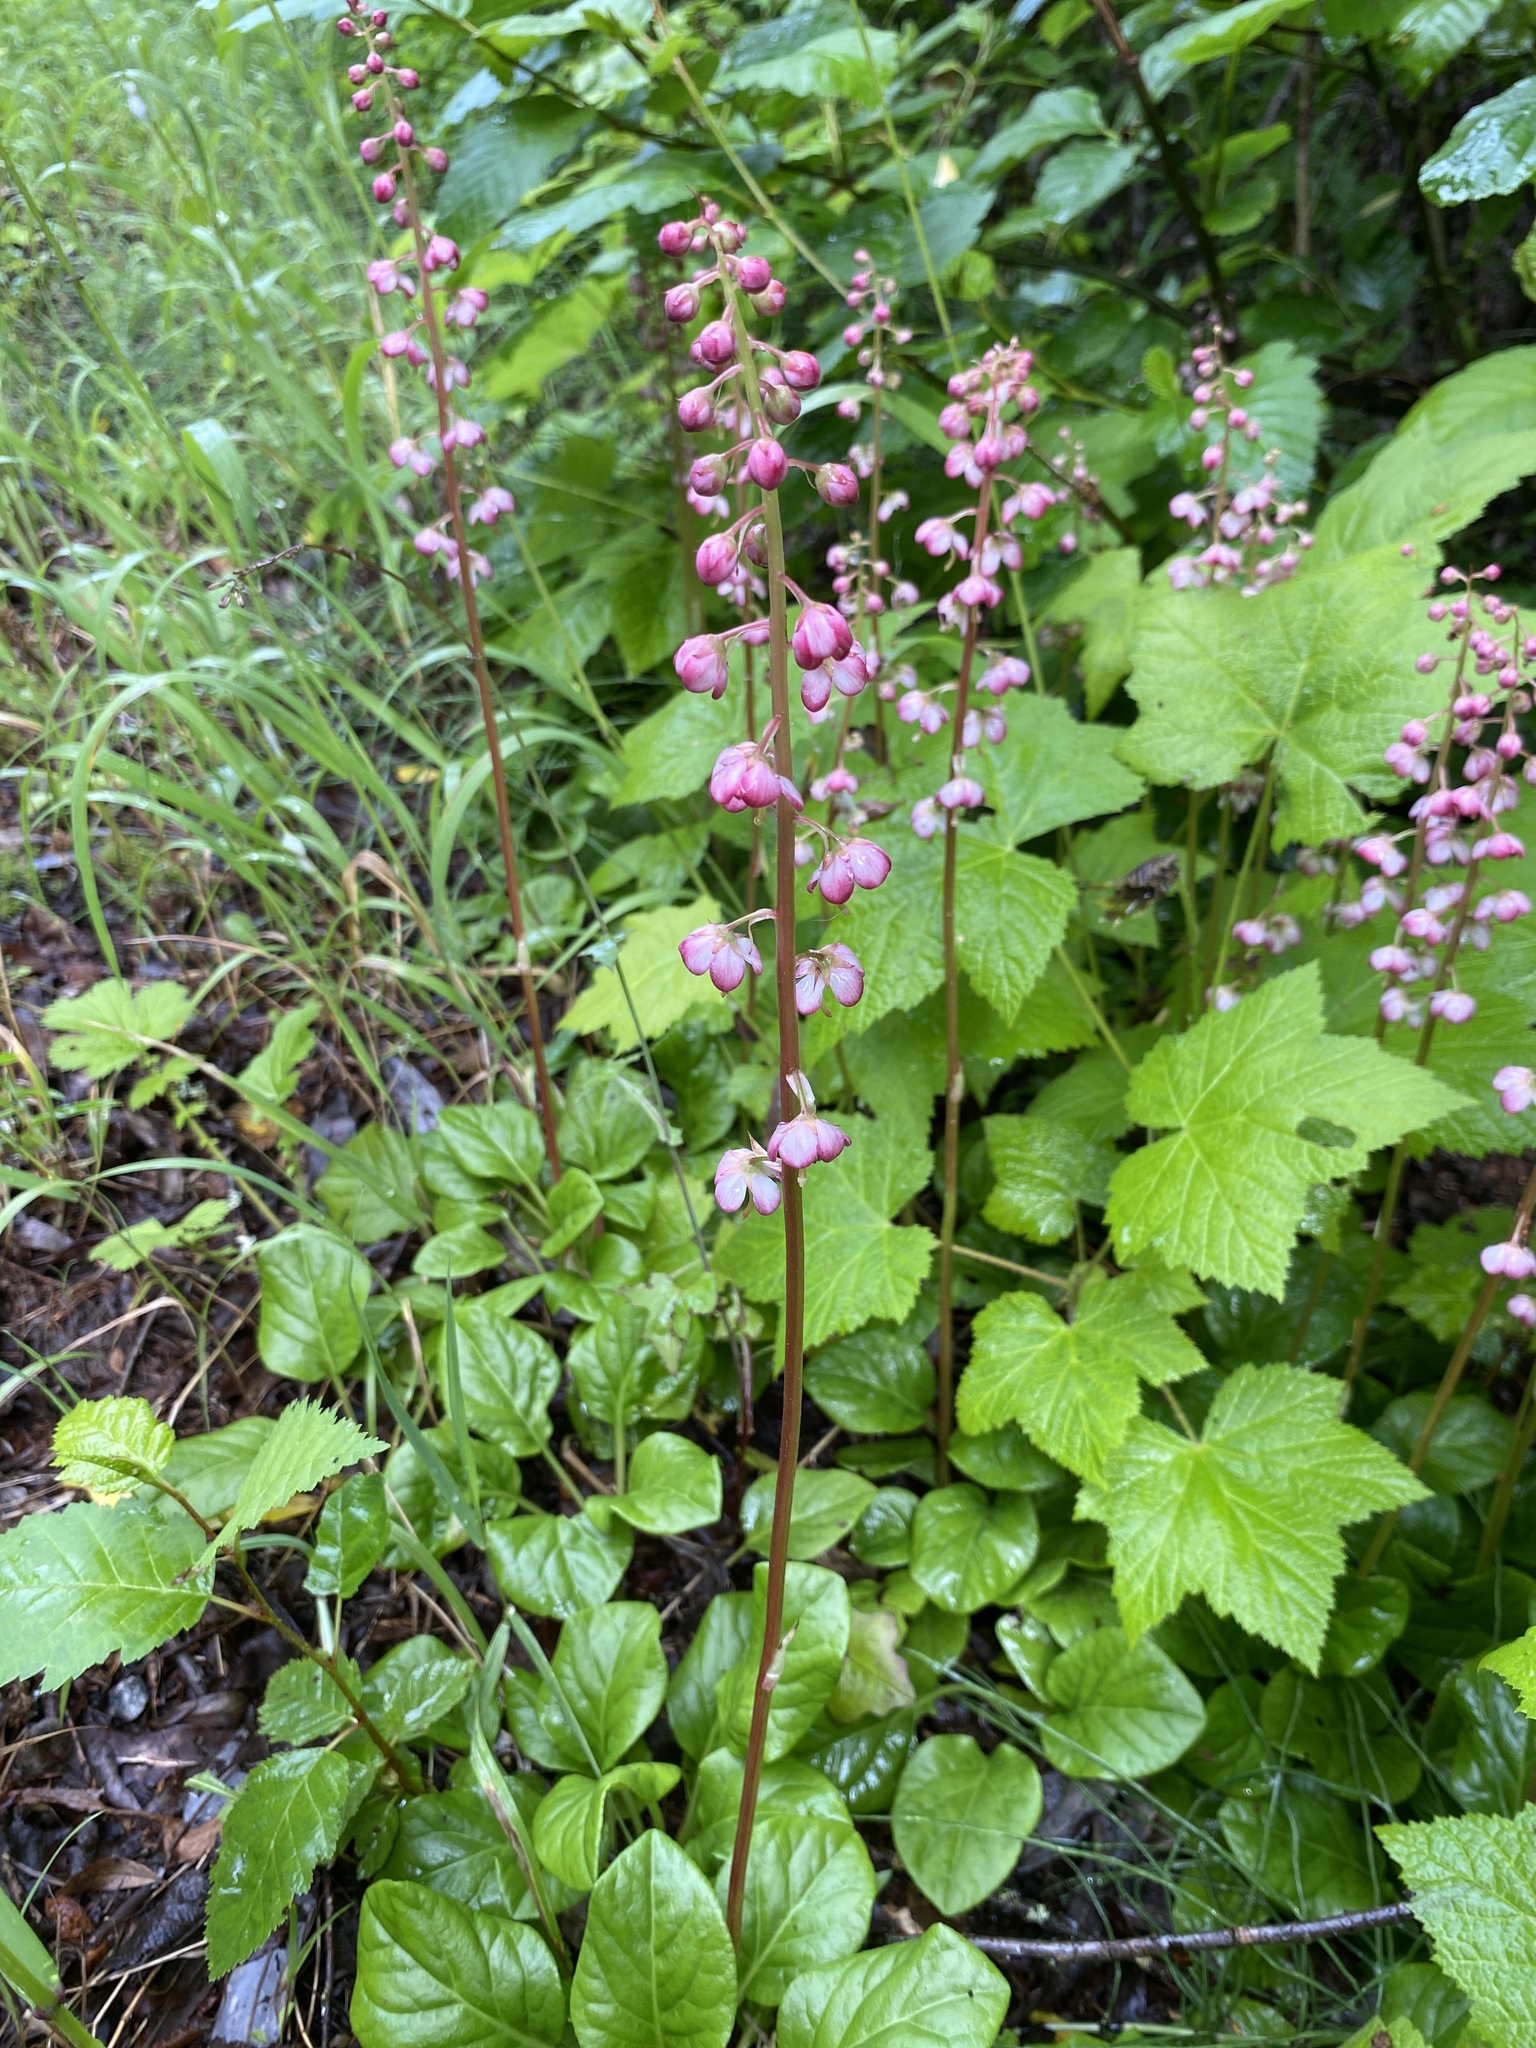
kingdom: Plantae
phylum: Tracheophyta
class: Magnoliopsida
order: Ericales
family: Ericaceae
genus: Pyrola
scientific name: Pyrola asarifolia
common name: Bog wintergreen
